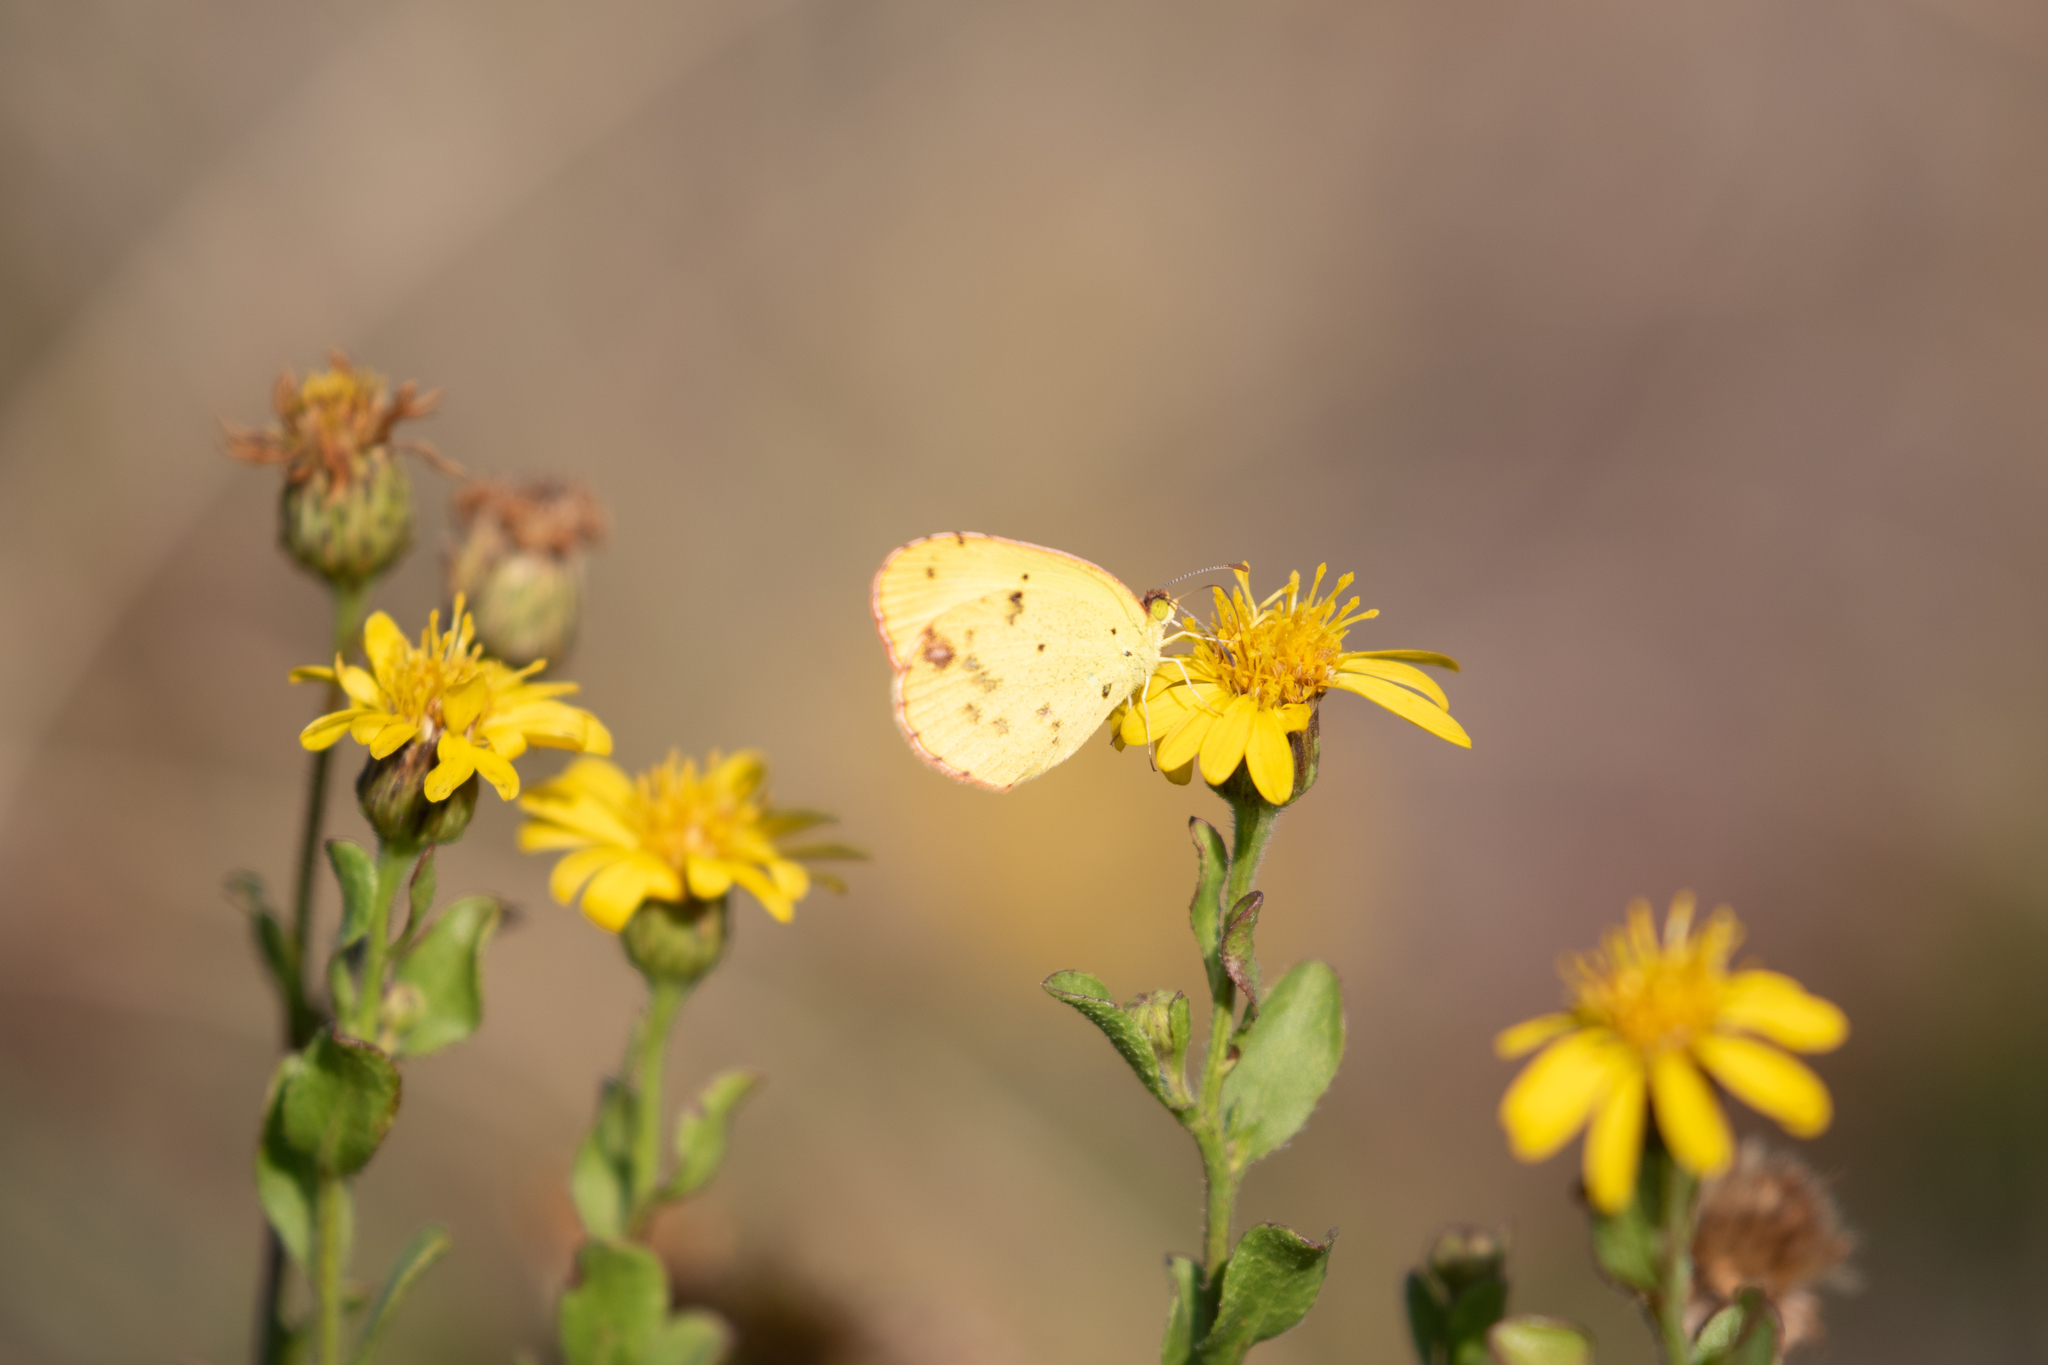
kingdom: Animalia
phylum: Arthropoda
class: Insecta
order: Lepidoptera
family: Pieridae
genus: Pyrisitia
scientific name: Pyrisitia lisa
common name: Little yellow
